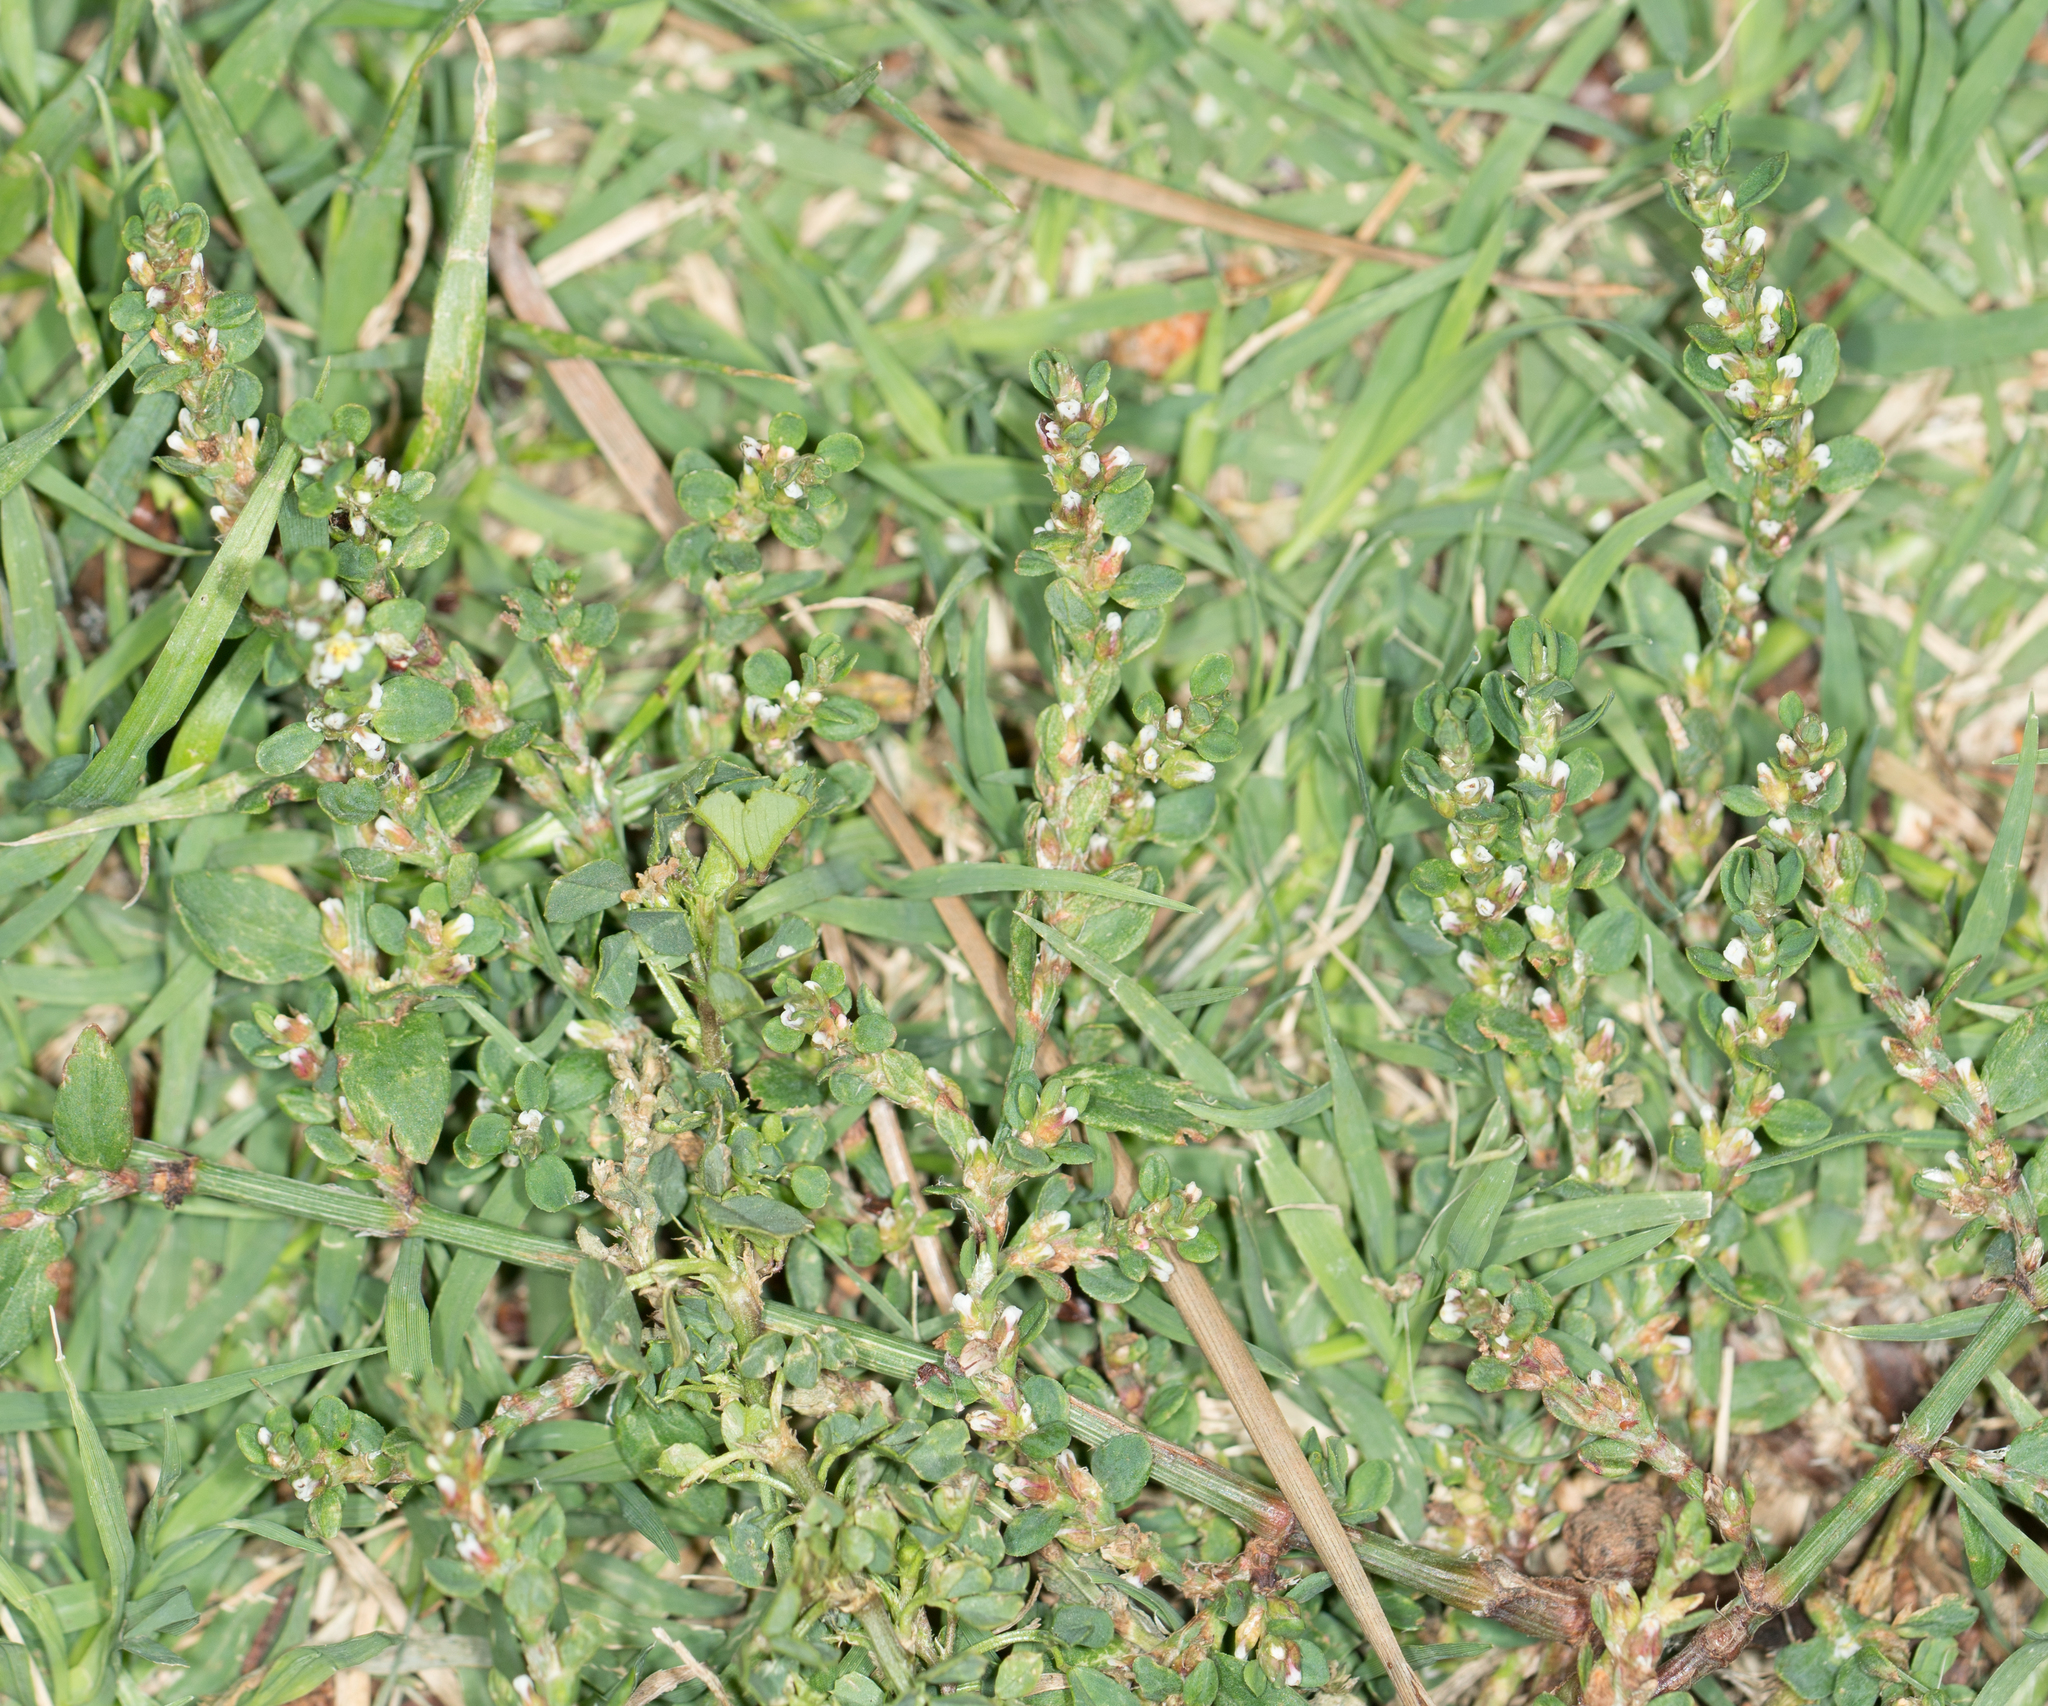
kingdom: Plantae
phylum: Tracheophyta
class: Magnoliopsida
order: Caryophyllales
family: Polygonaceae
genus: Polygonum
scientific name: Polygonum aviculare
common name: Prostrate knotweed
